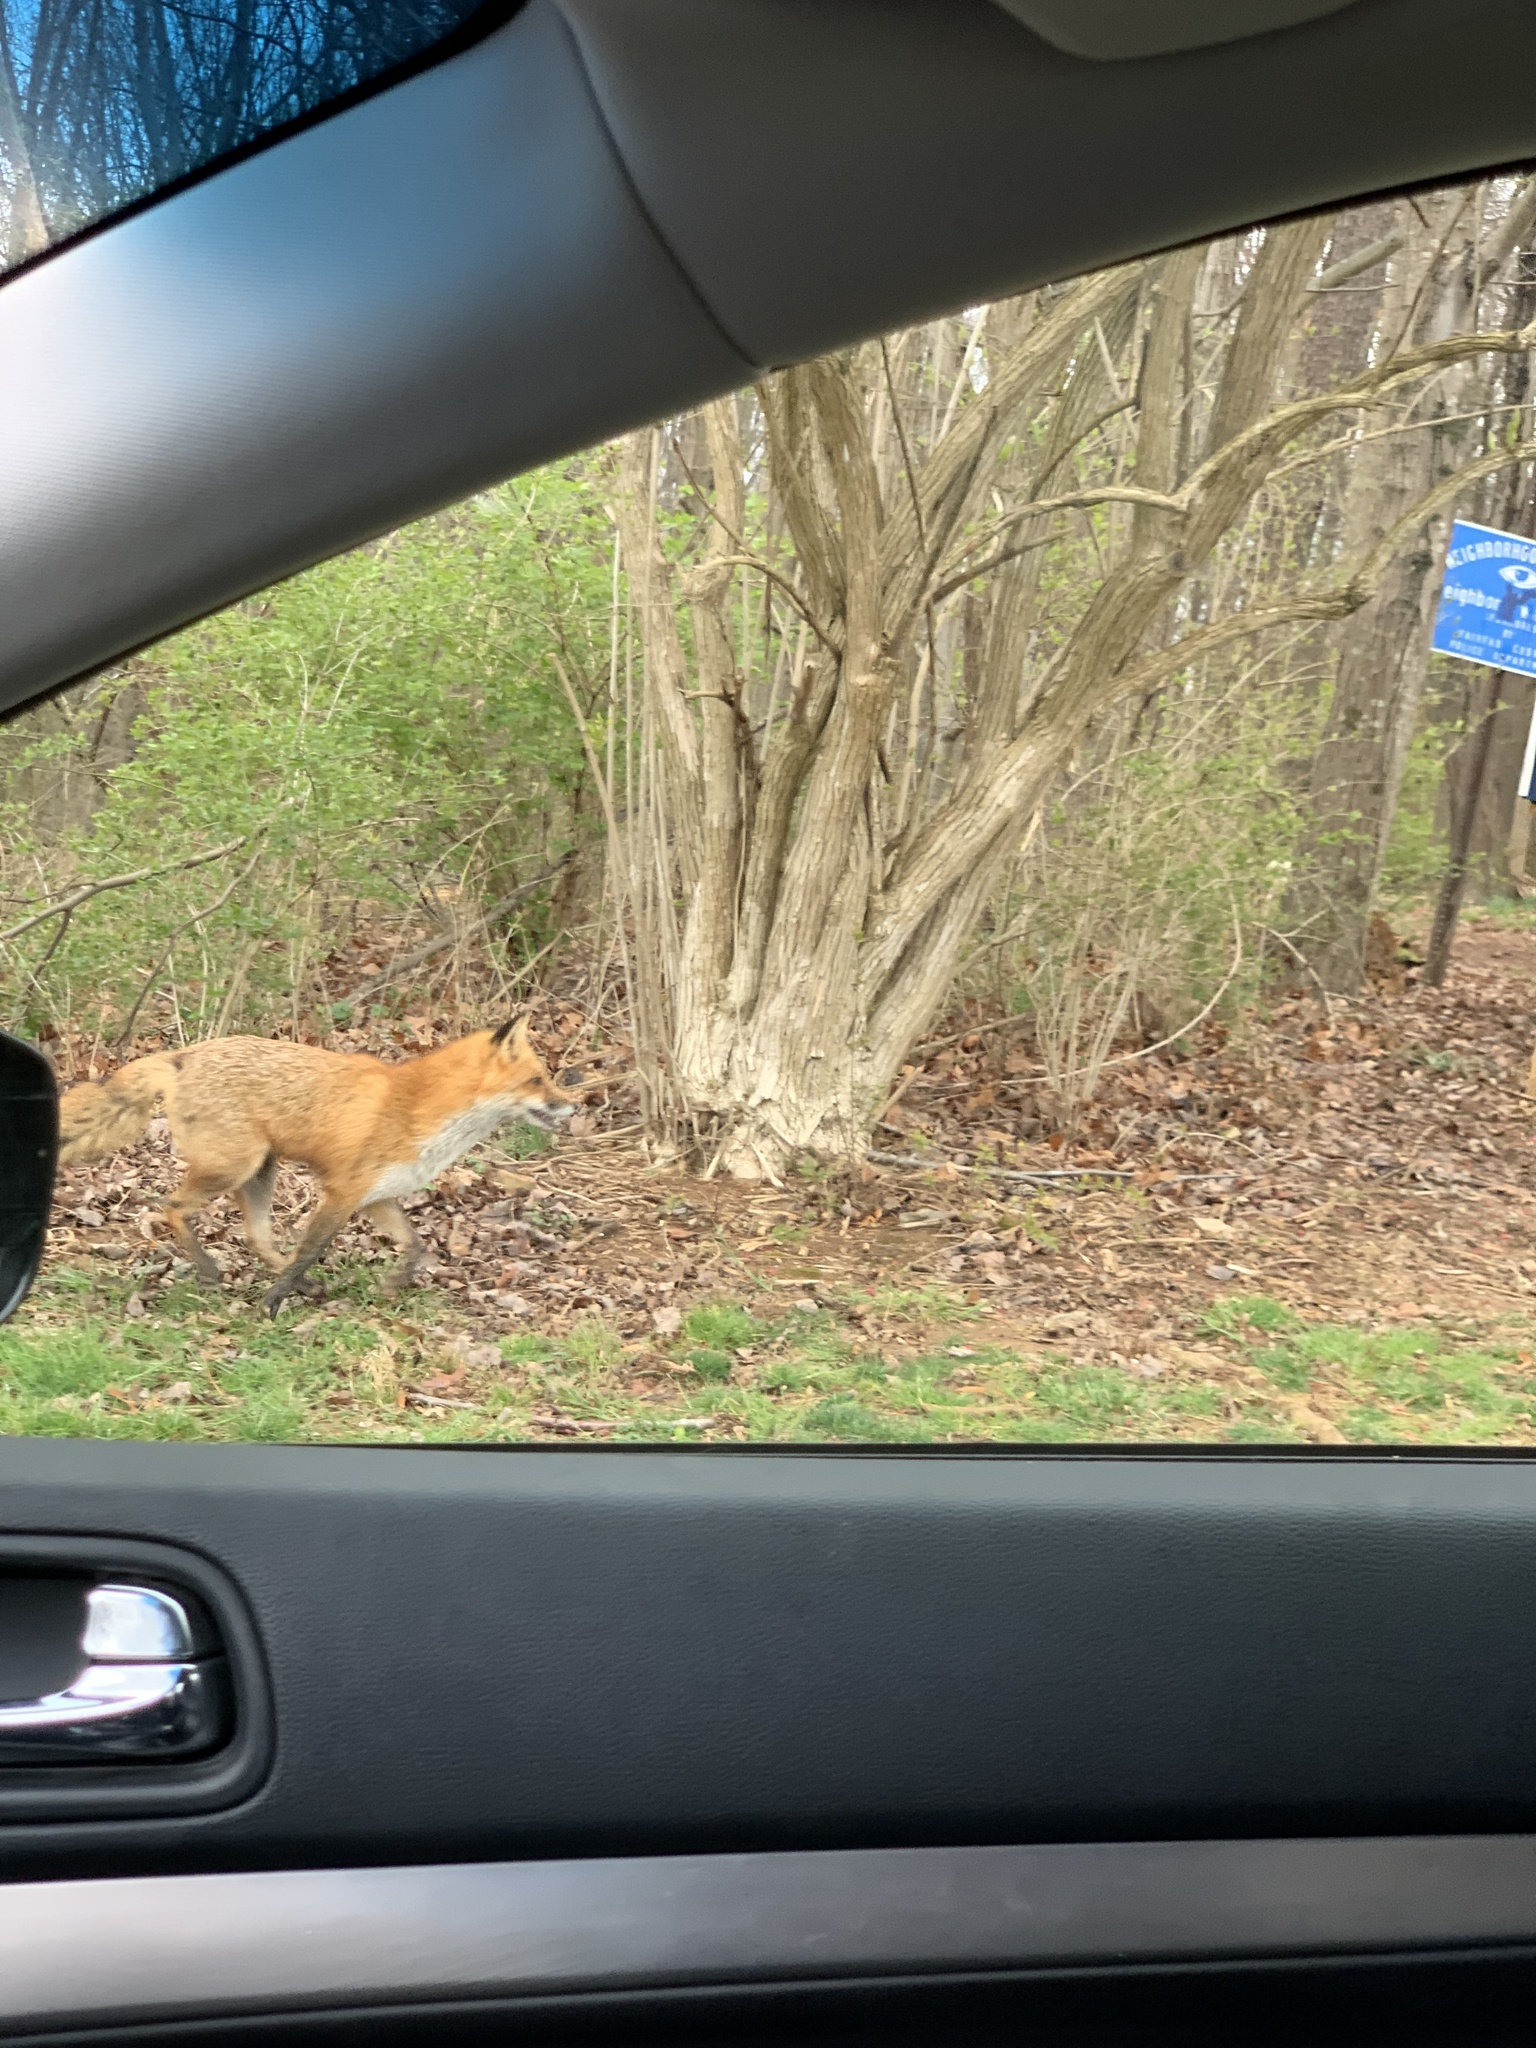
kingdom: Animalia
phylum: Chordata
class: Mammalia
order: Carnivora
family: Canidae
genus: Vulpes
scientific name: Vulpes vulpes
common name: Red fox
